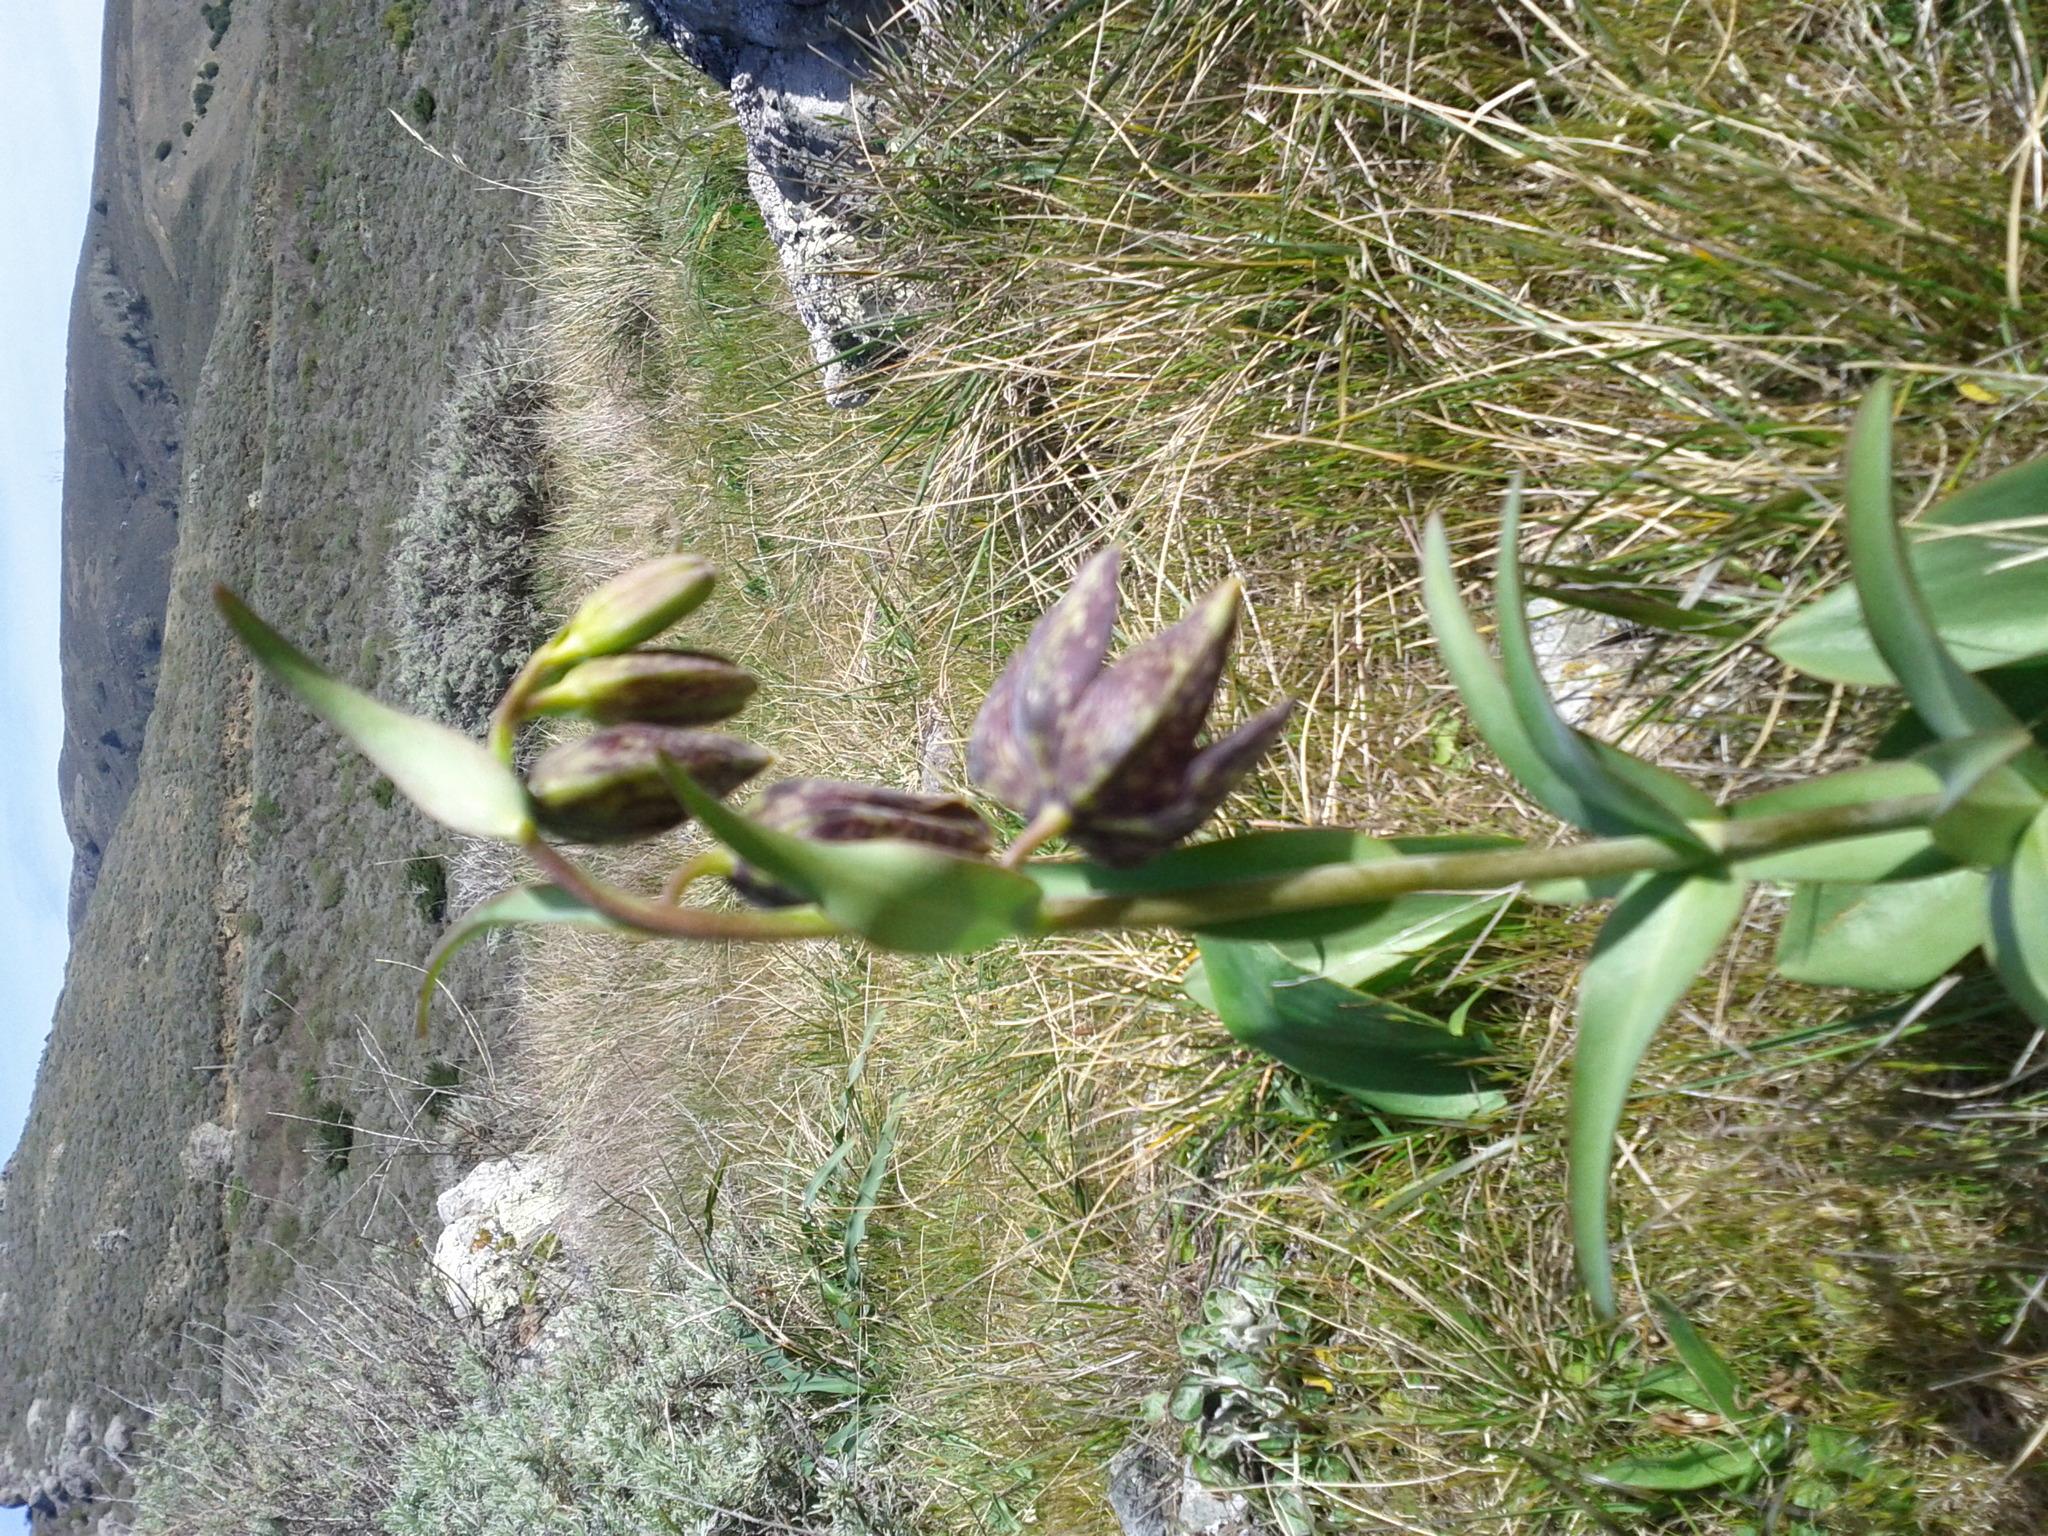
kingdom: Plantae
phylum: Tracheophyta
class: Liliopsida
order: Liliales
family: Liliaceae
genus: Fritillaria
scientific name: Fritillaria affinis
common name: Ojai fritillary
